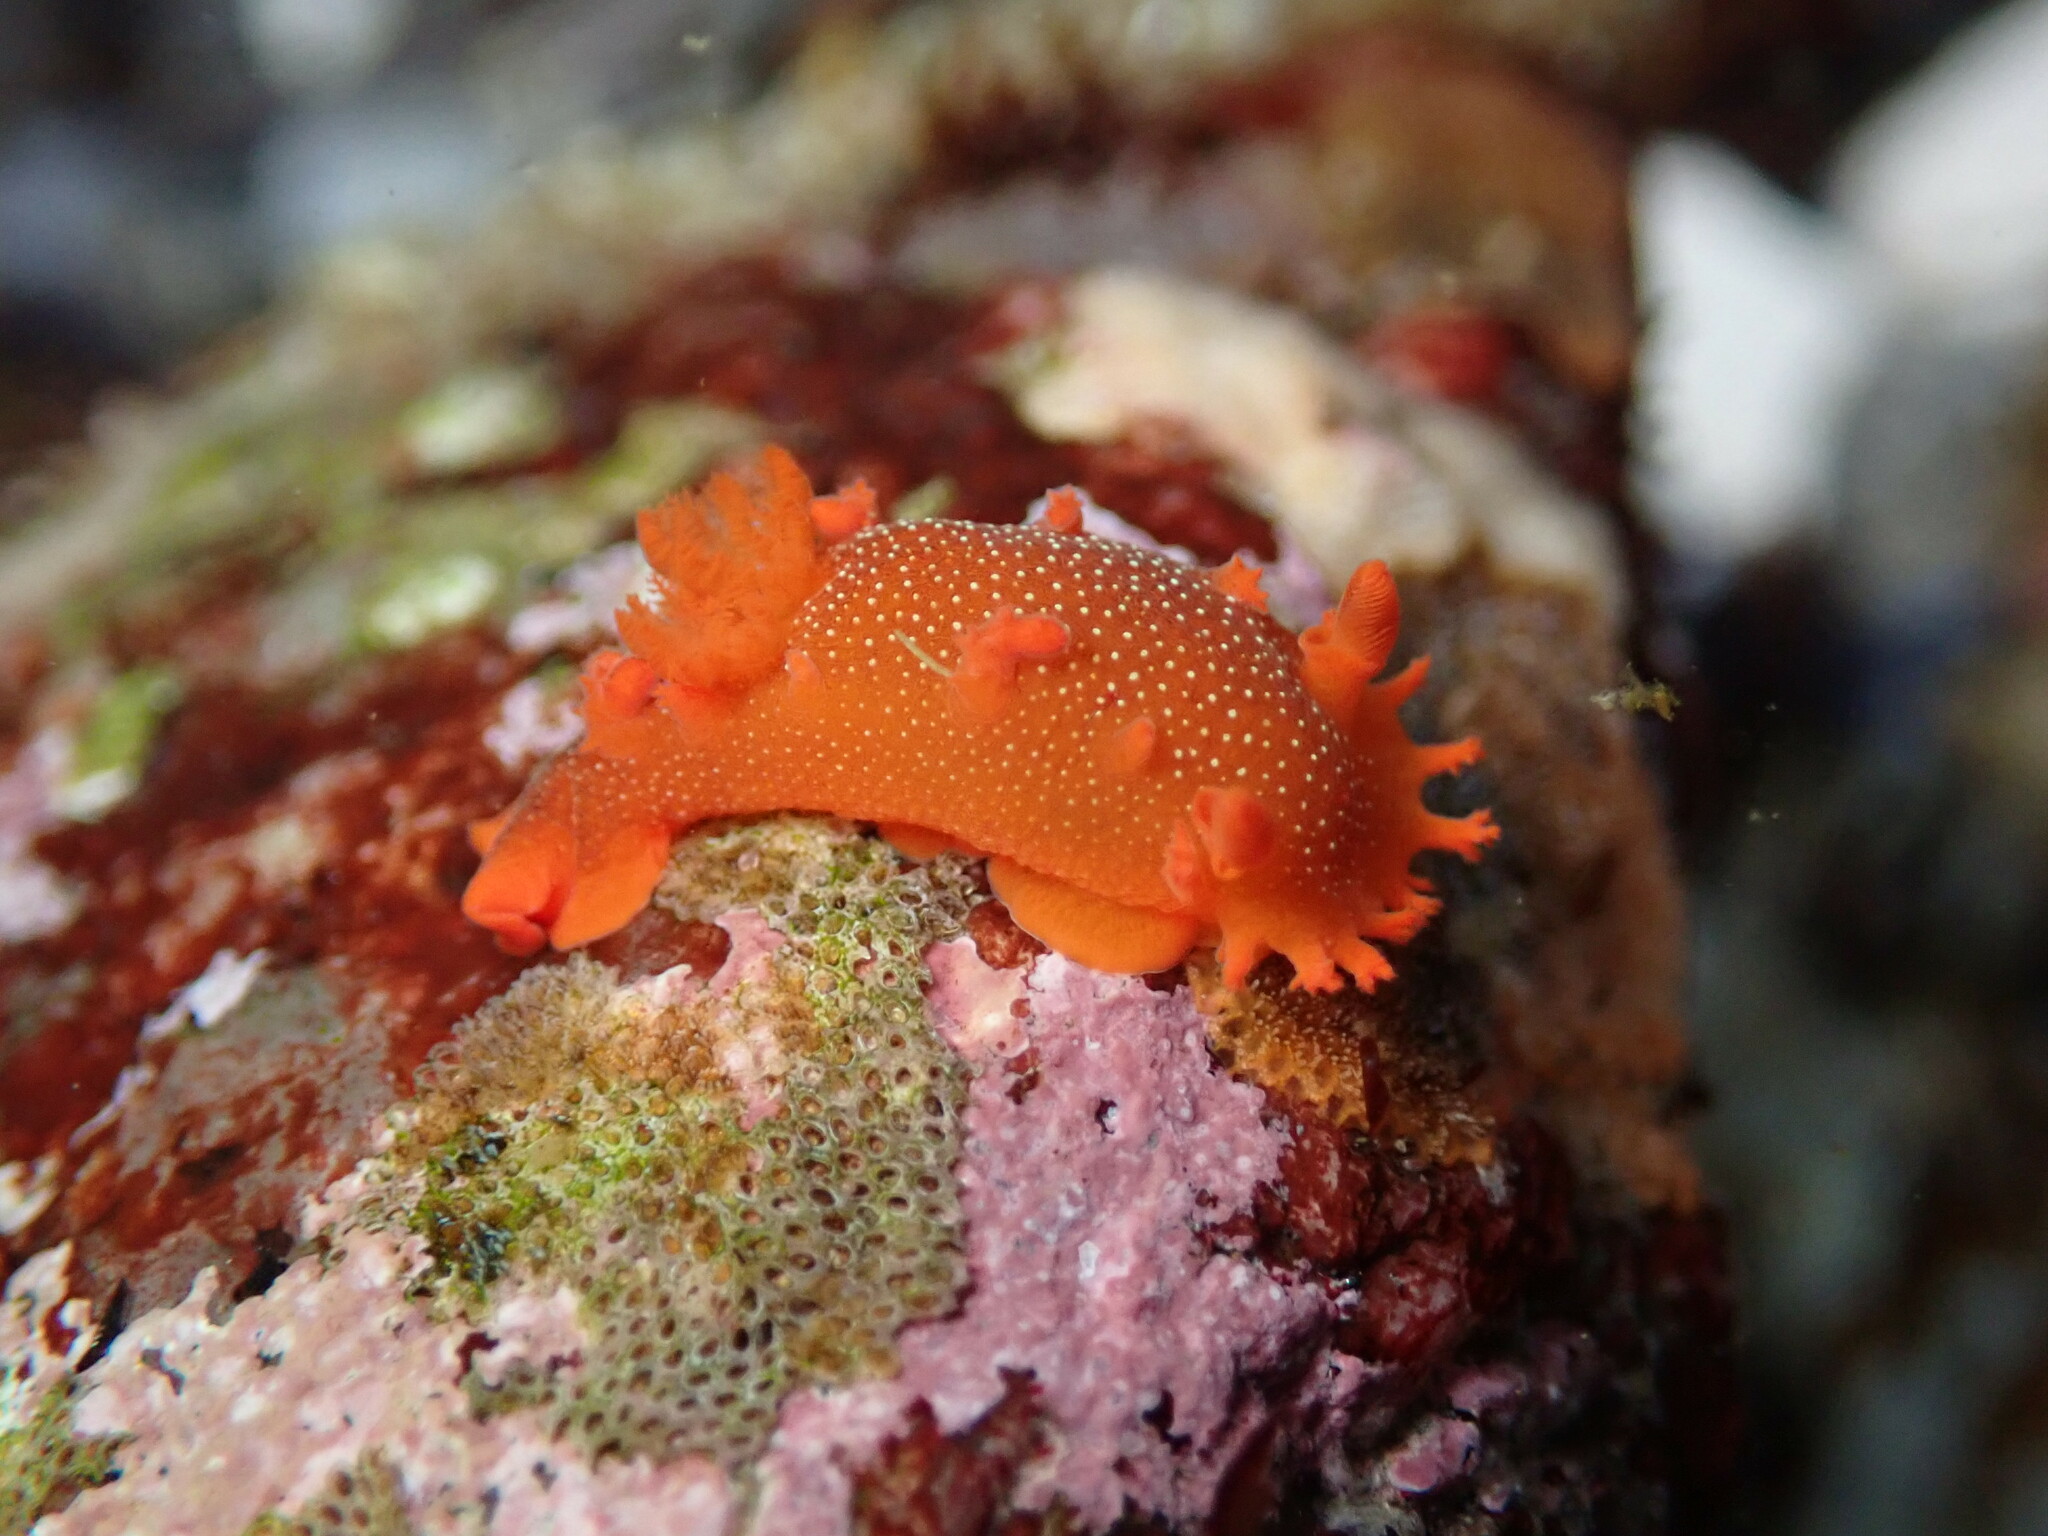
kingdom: Animalia
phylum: Mollusca
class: Gastropoda
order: Nudibranchia
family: Polyceridae
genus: Triopha
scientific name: Triopha maculata
